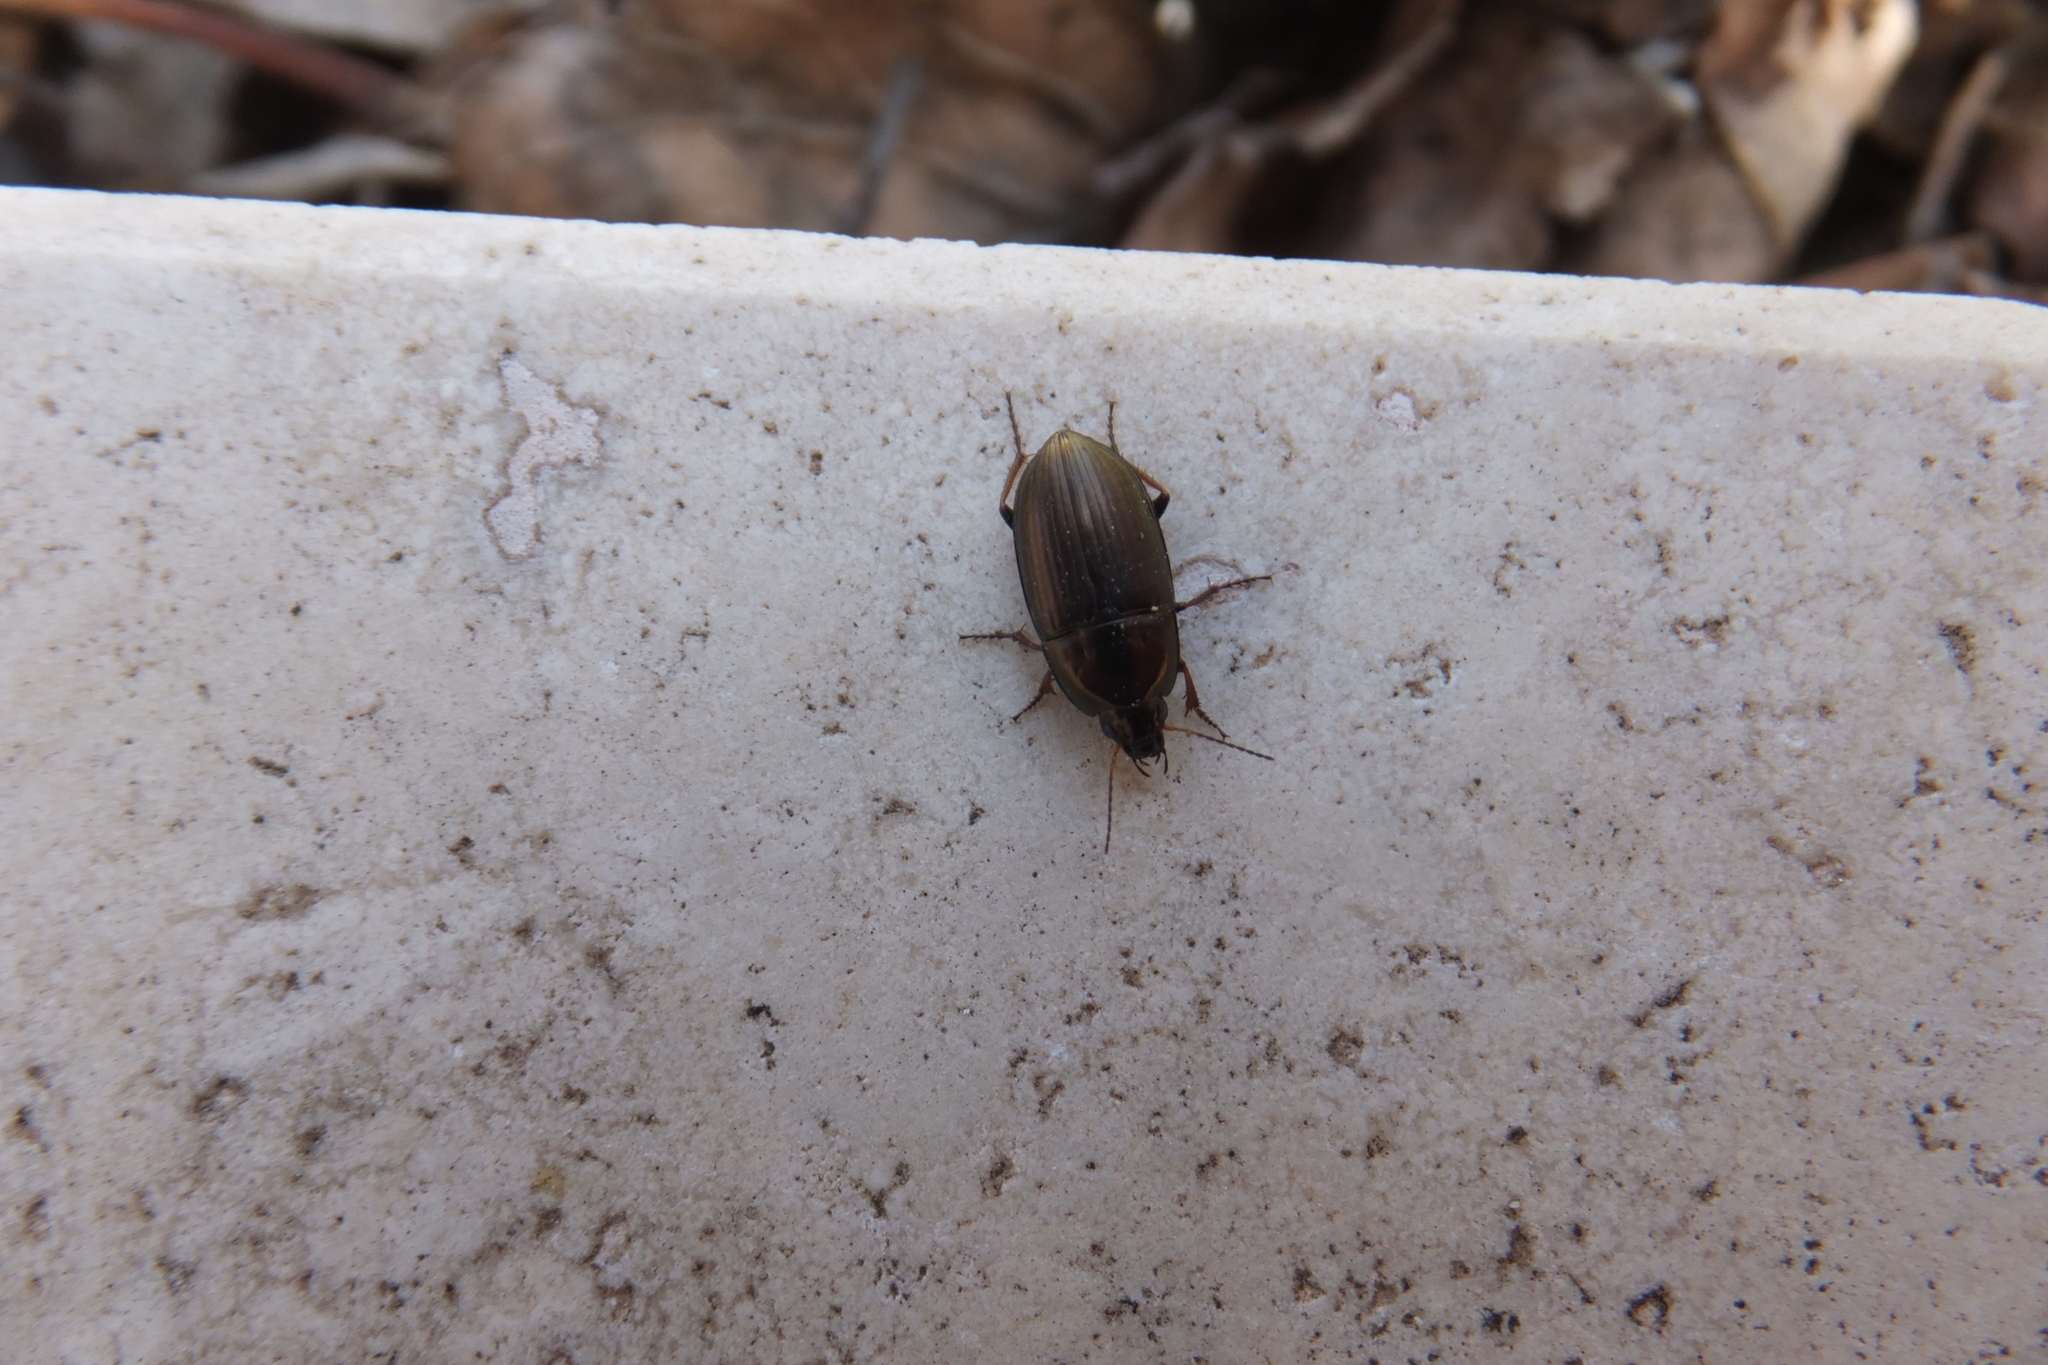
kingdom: Animalia
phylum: Arthropoda
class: Insecta
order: Coleoptera
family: Carabidae
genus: Amara
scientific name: Amara aenea
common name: Common sun beetle
